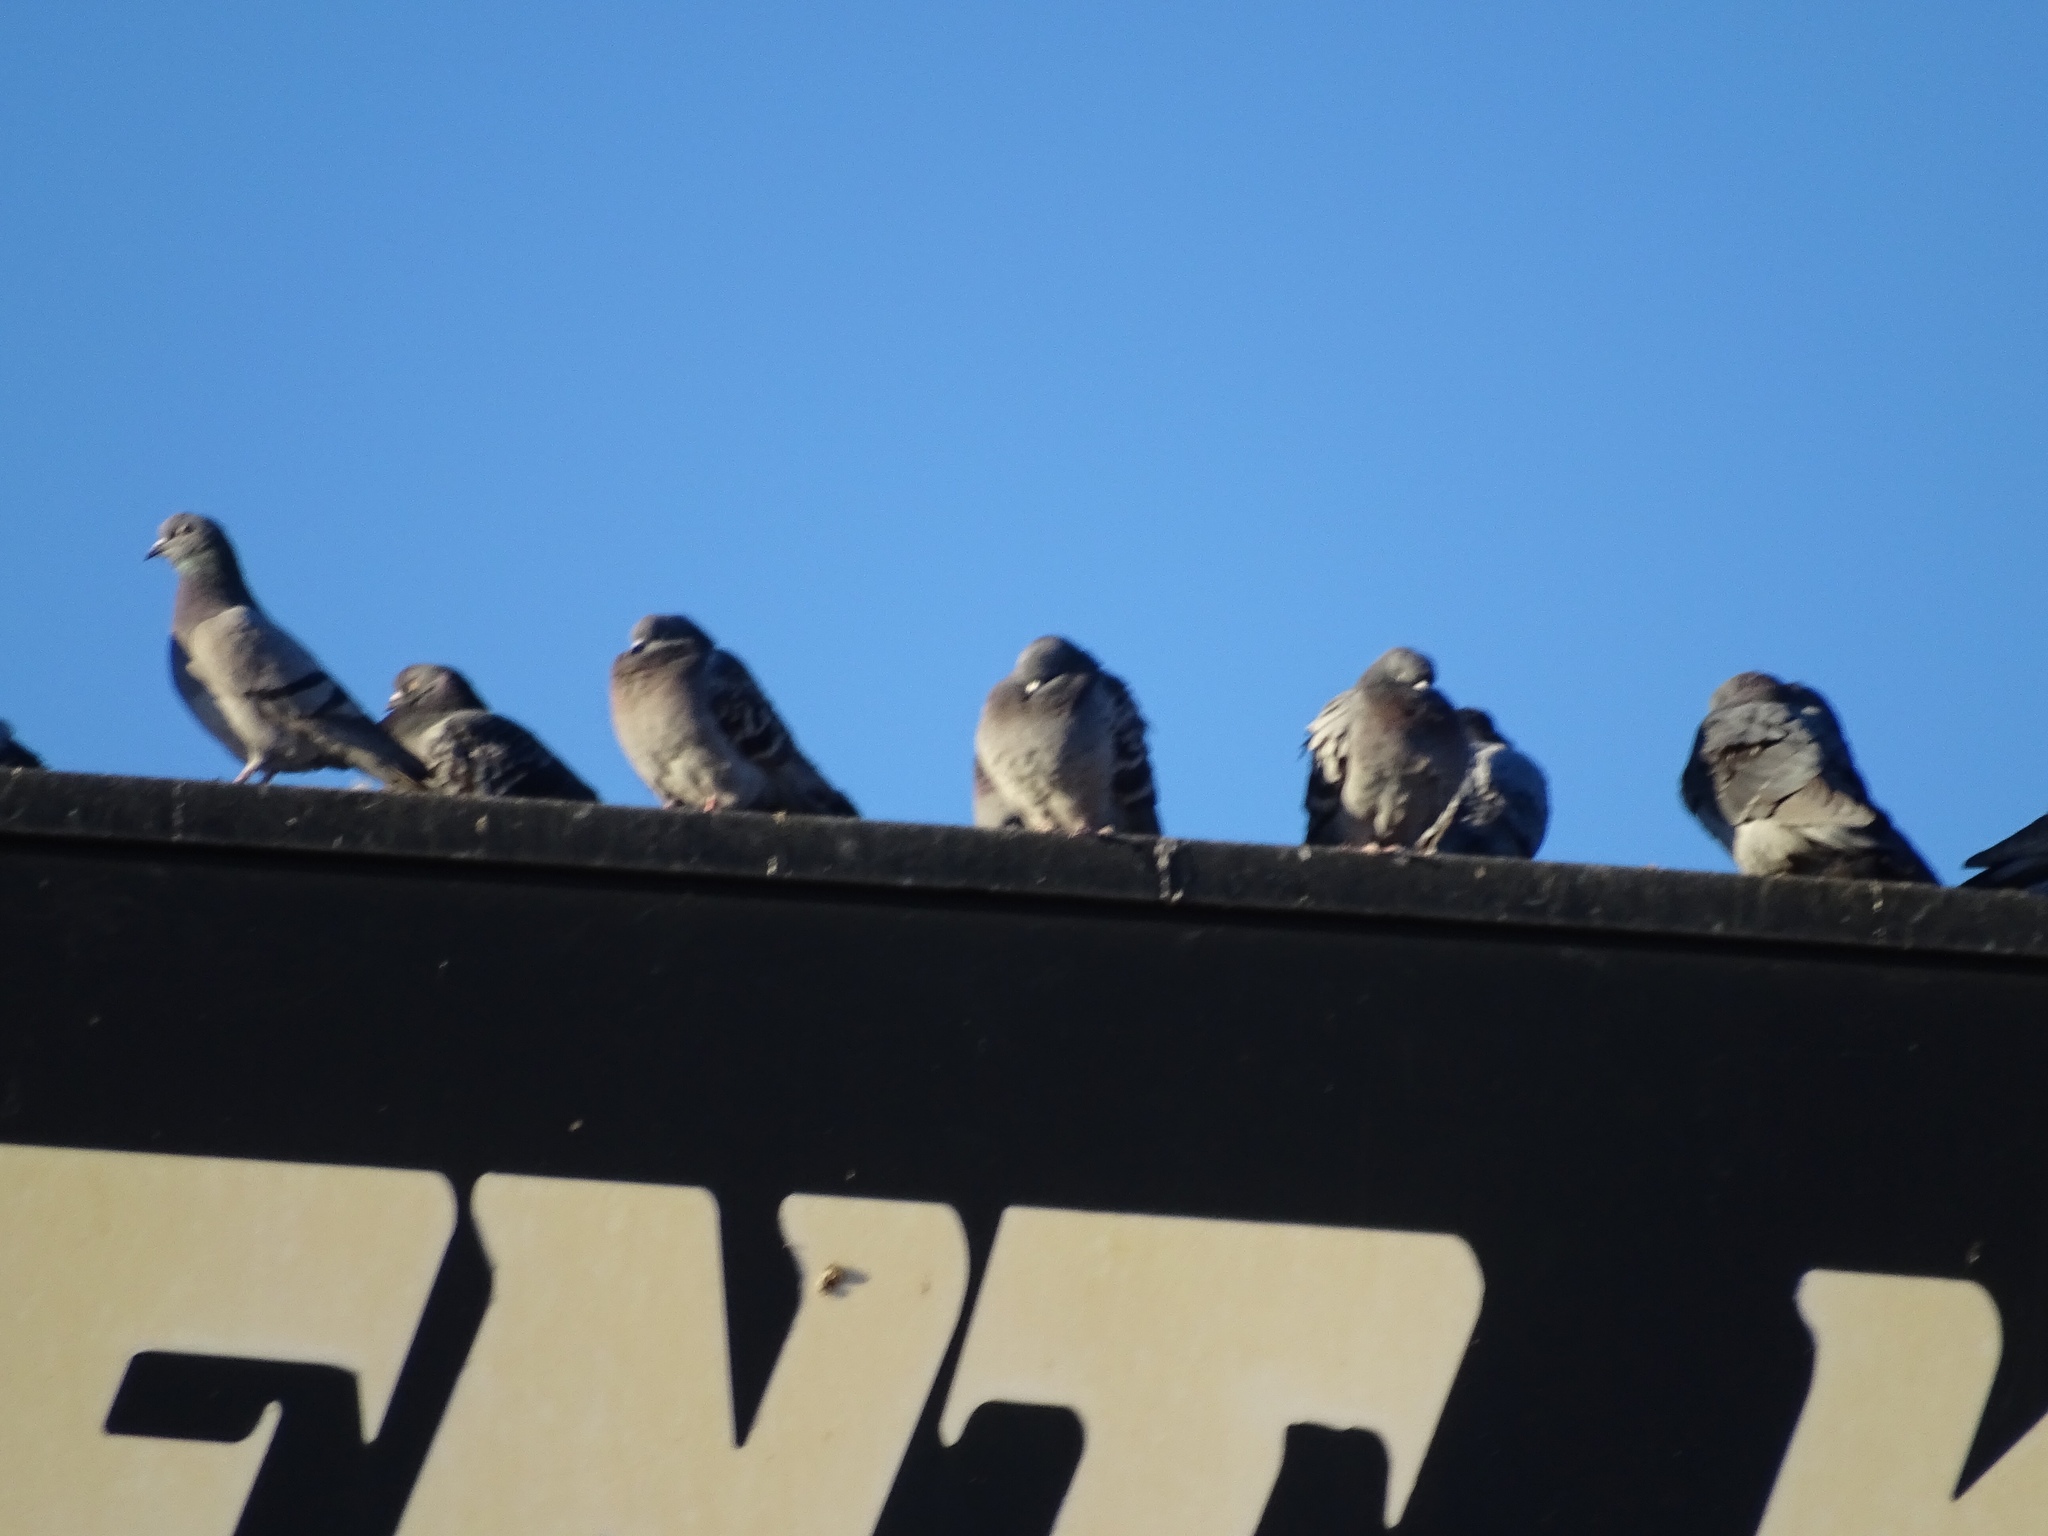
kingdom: Animalia
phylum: Chordata
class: Aves
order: Columbiformes
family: Columbidae
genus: Columba
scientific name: Columba livia
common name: Rock pigeon
